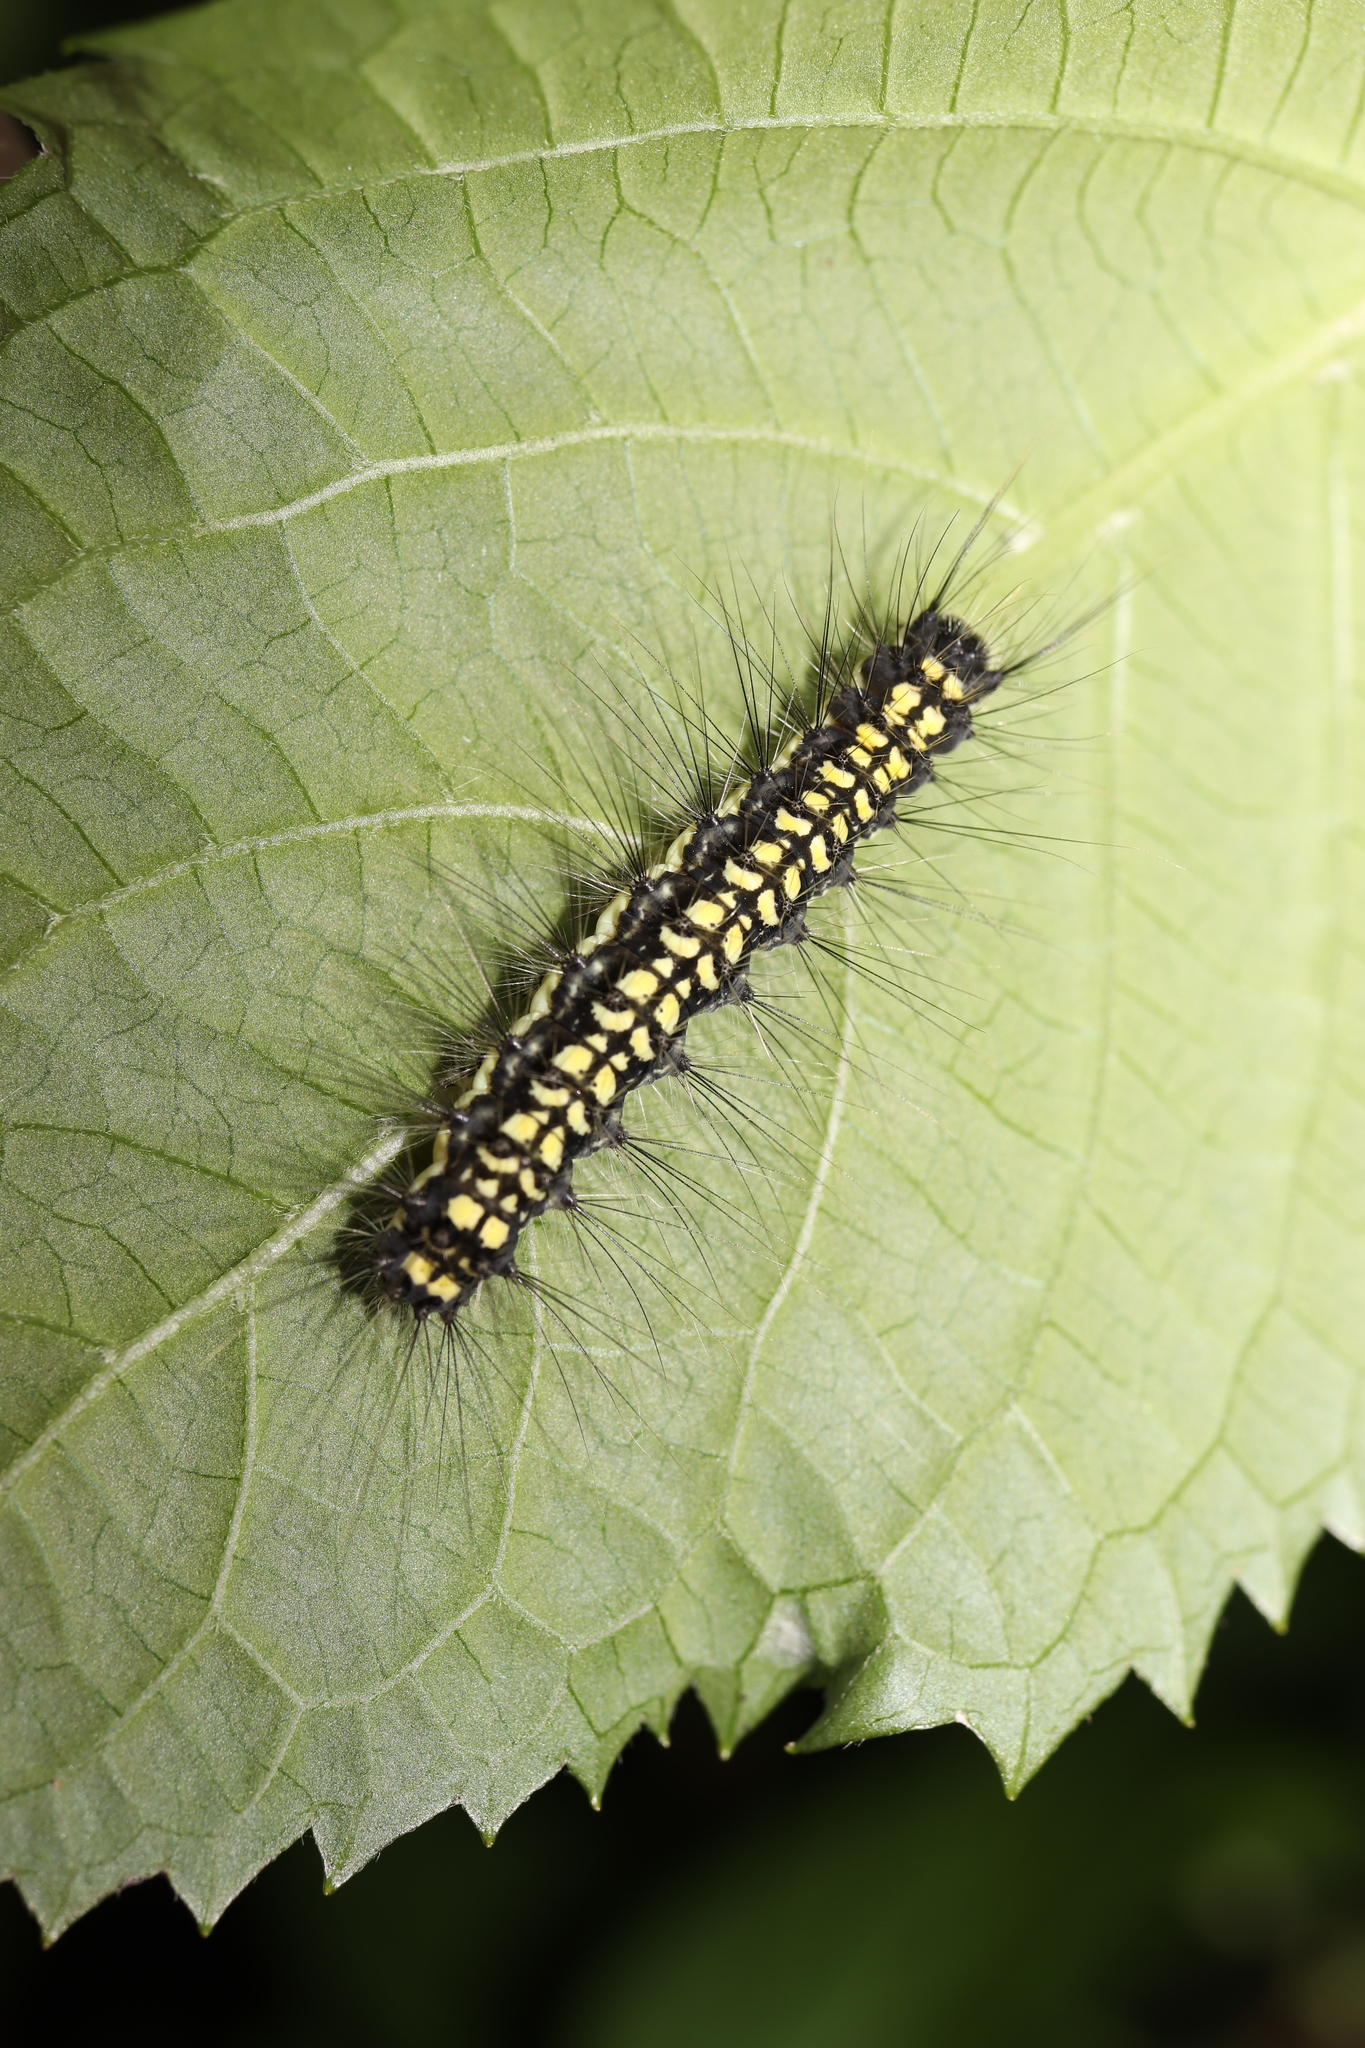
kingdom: Animalia
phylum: Arthropoda
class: Insecta
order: Lepidoptera
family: Erebidae
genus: Ivela
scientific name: Ivela auripes
